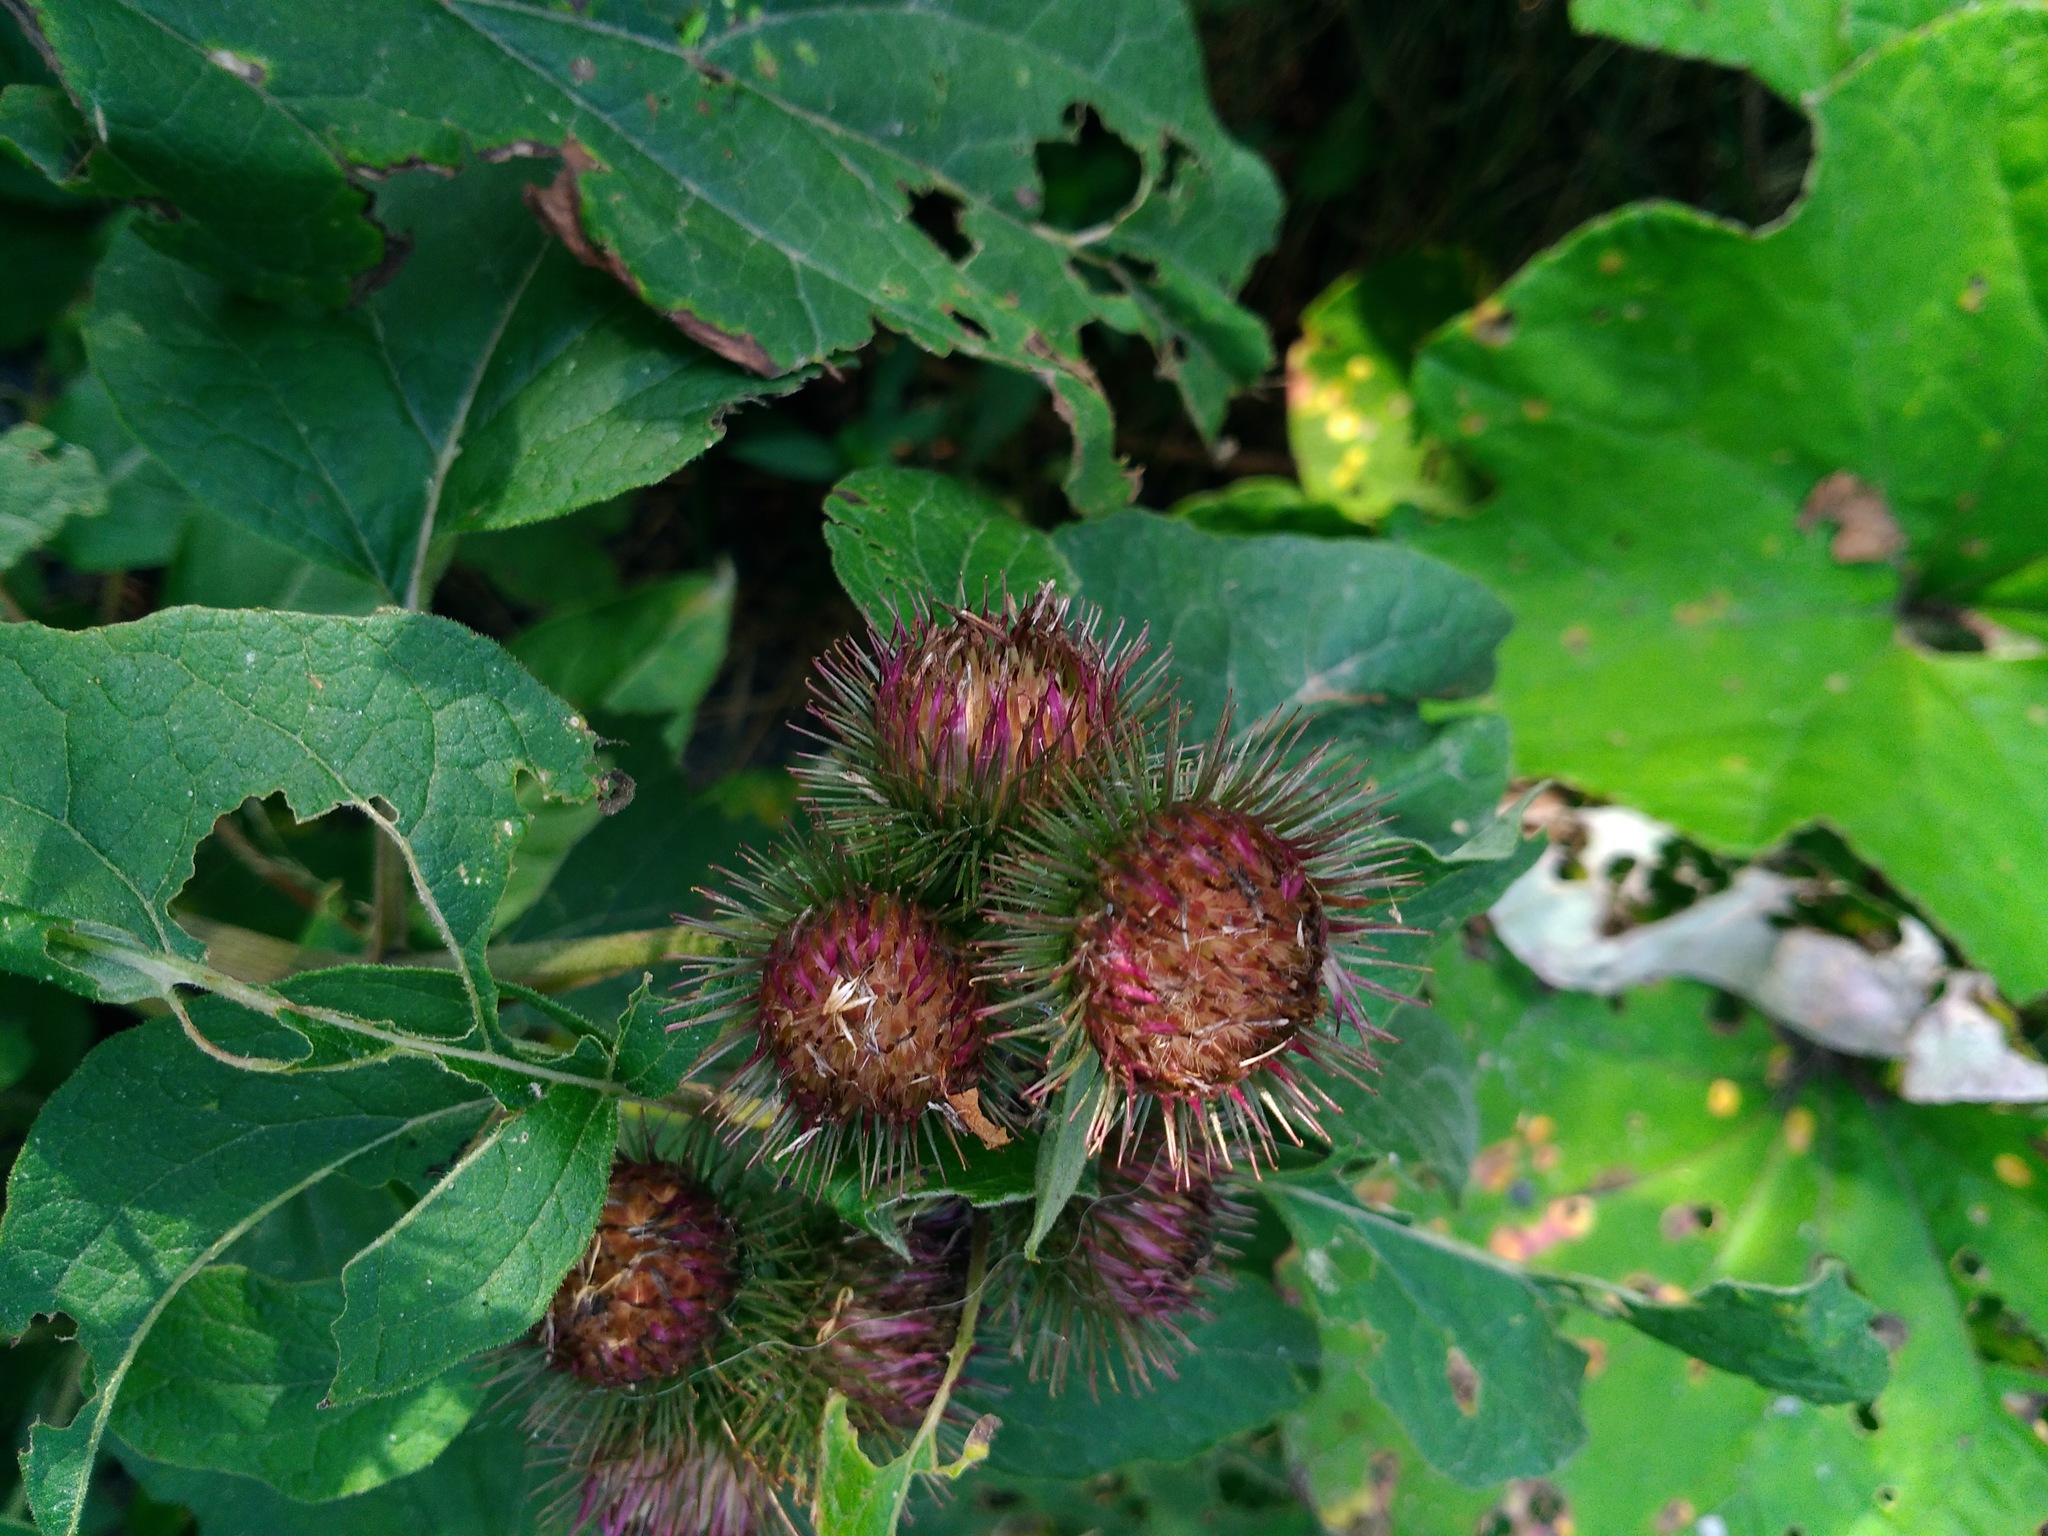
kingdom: Plantae
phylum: Tracheophyta
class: Magnoliopsida
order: Asterales
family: Asteraceae
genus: Arctium
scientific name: Arctium minus
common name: Lesser burdock
